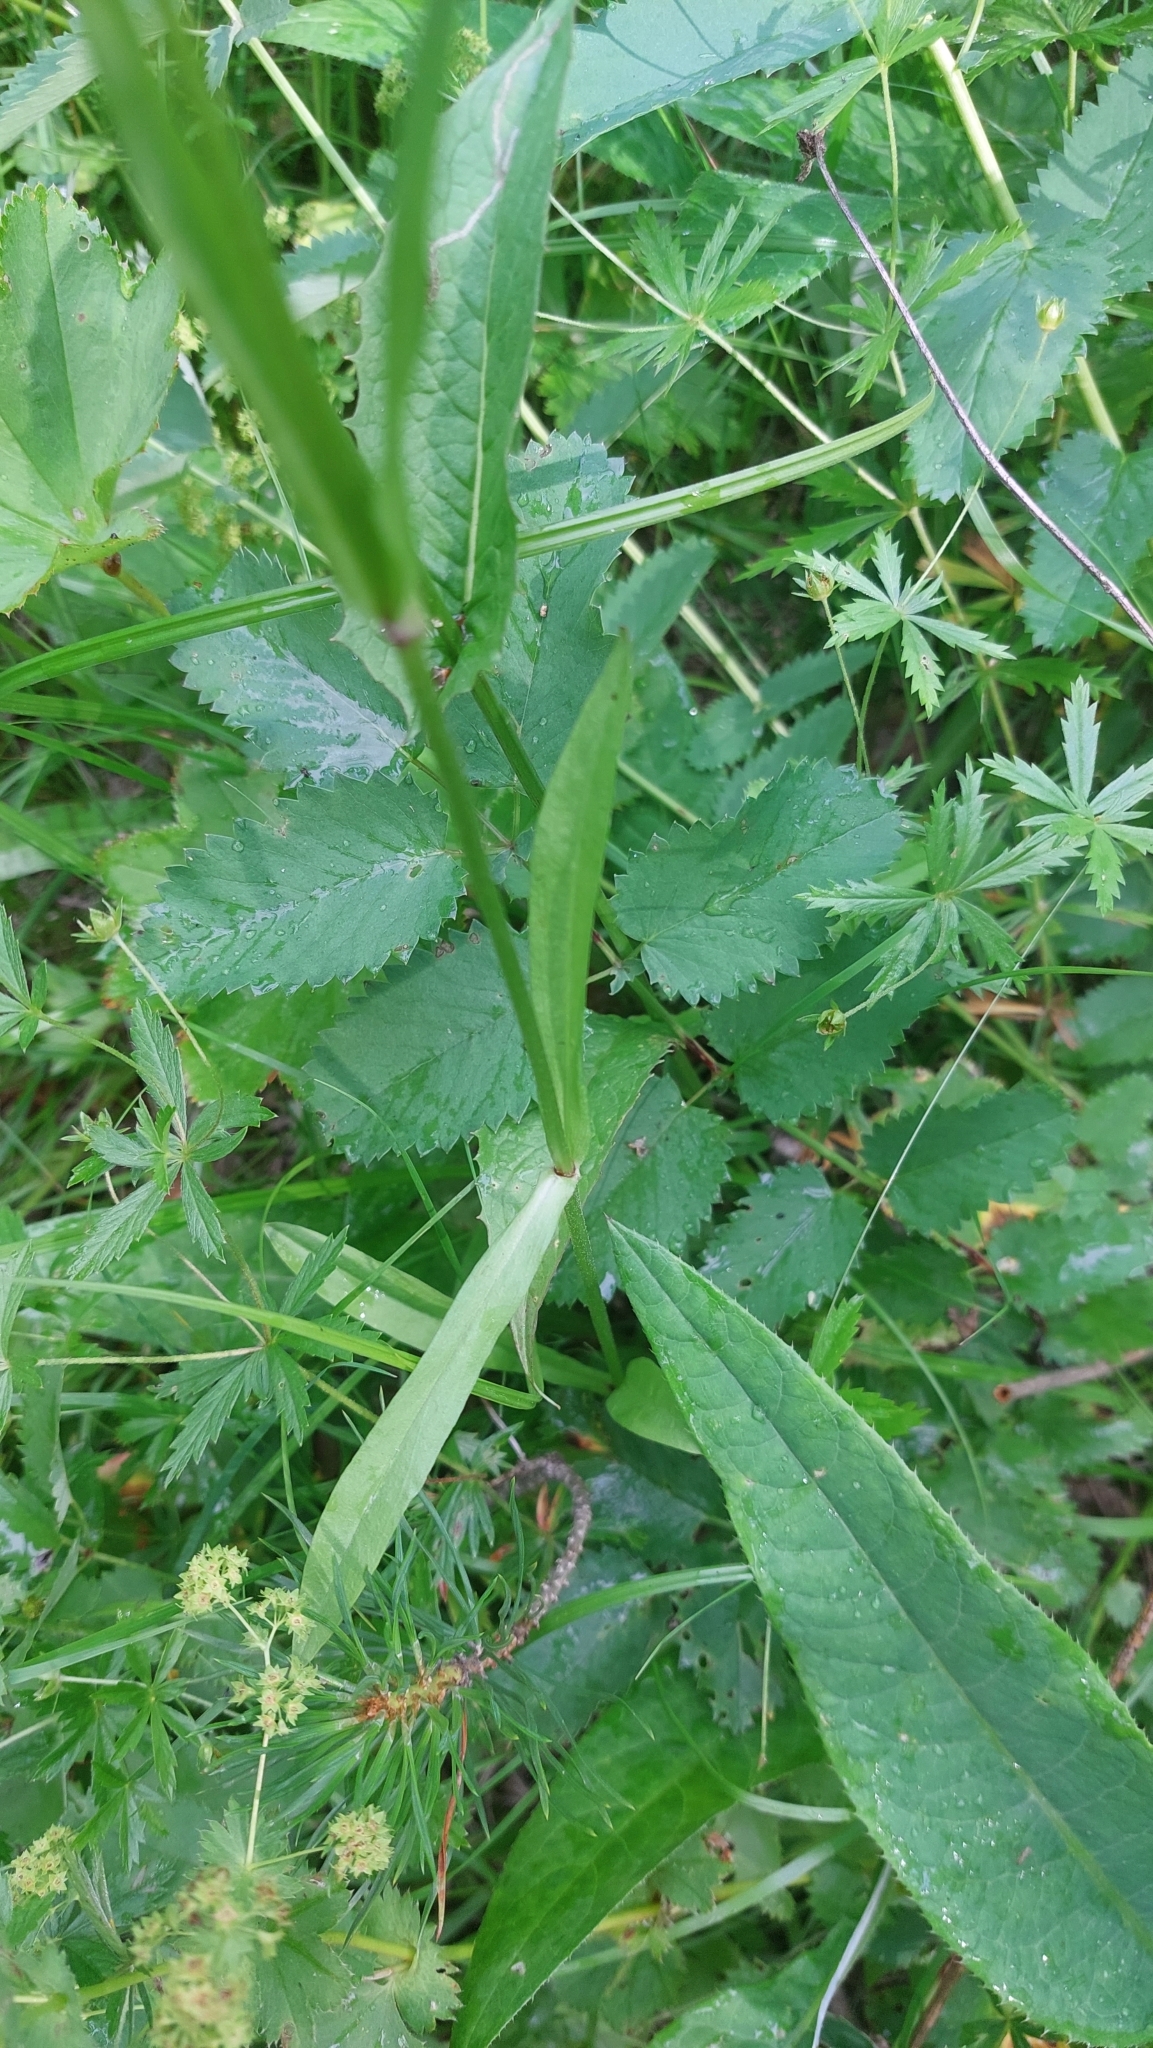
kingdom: Plantae
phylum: Tracheophyta
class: Magnoliopsida
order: Caryophyllales
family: Caryophyllaceae
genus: Silene
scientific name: Silene flos-cuculi
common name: Ragged-robin
